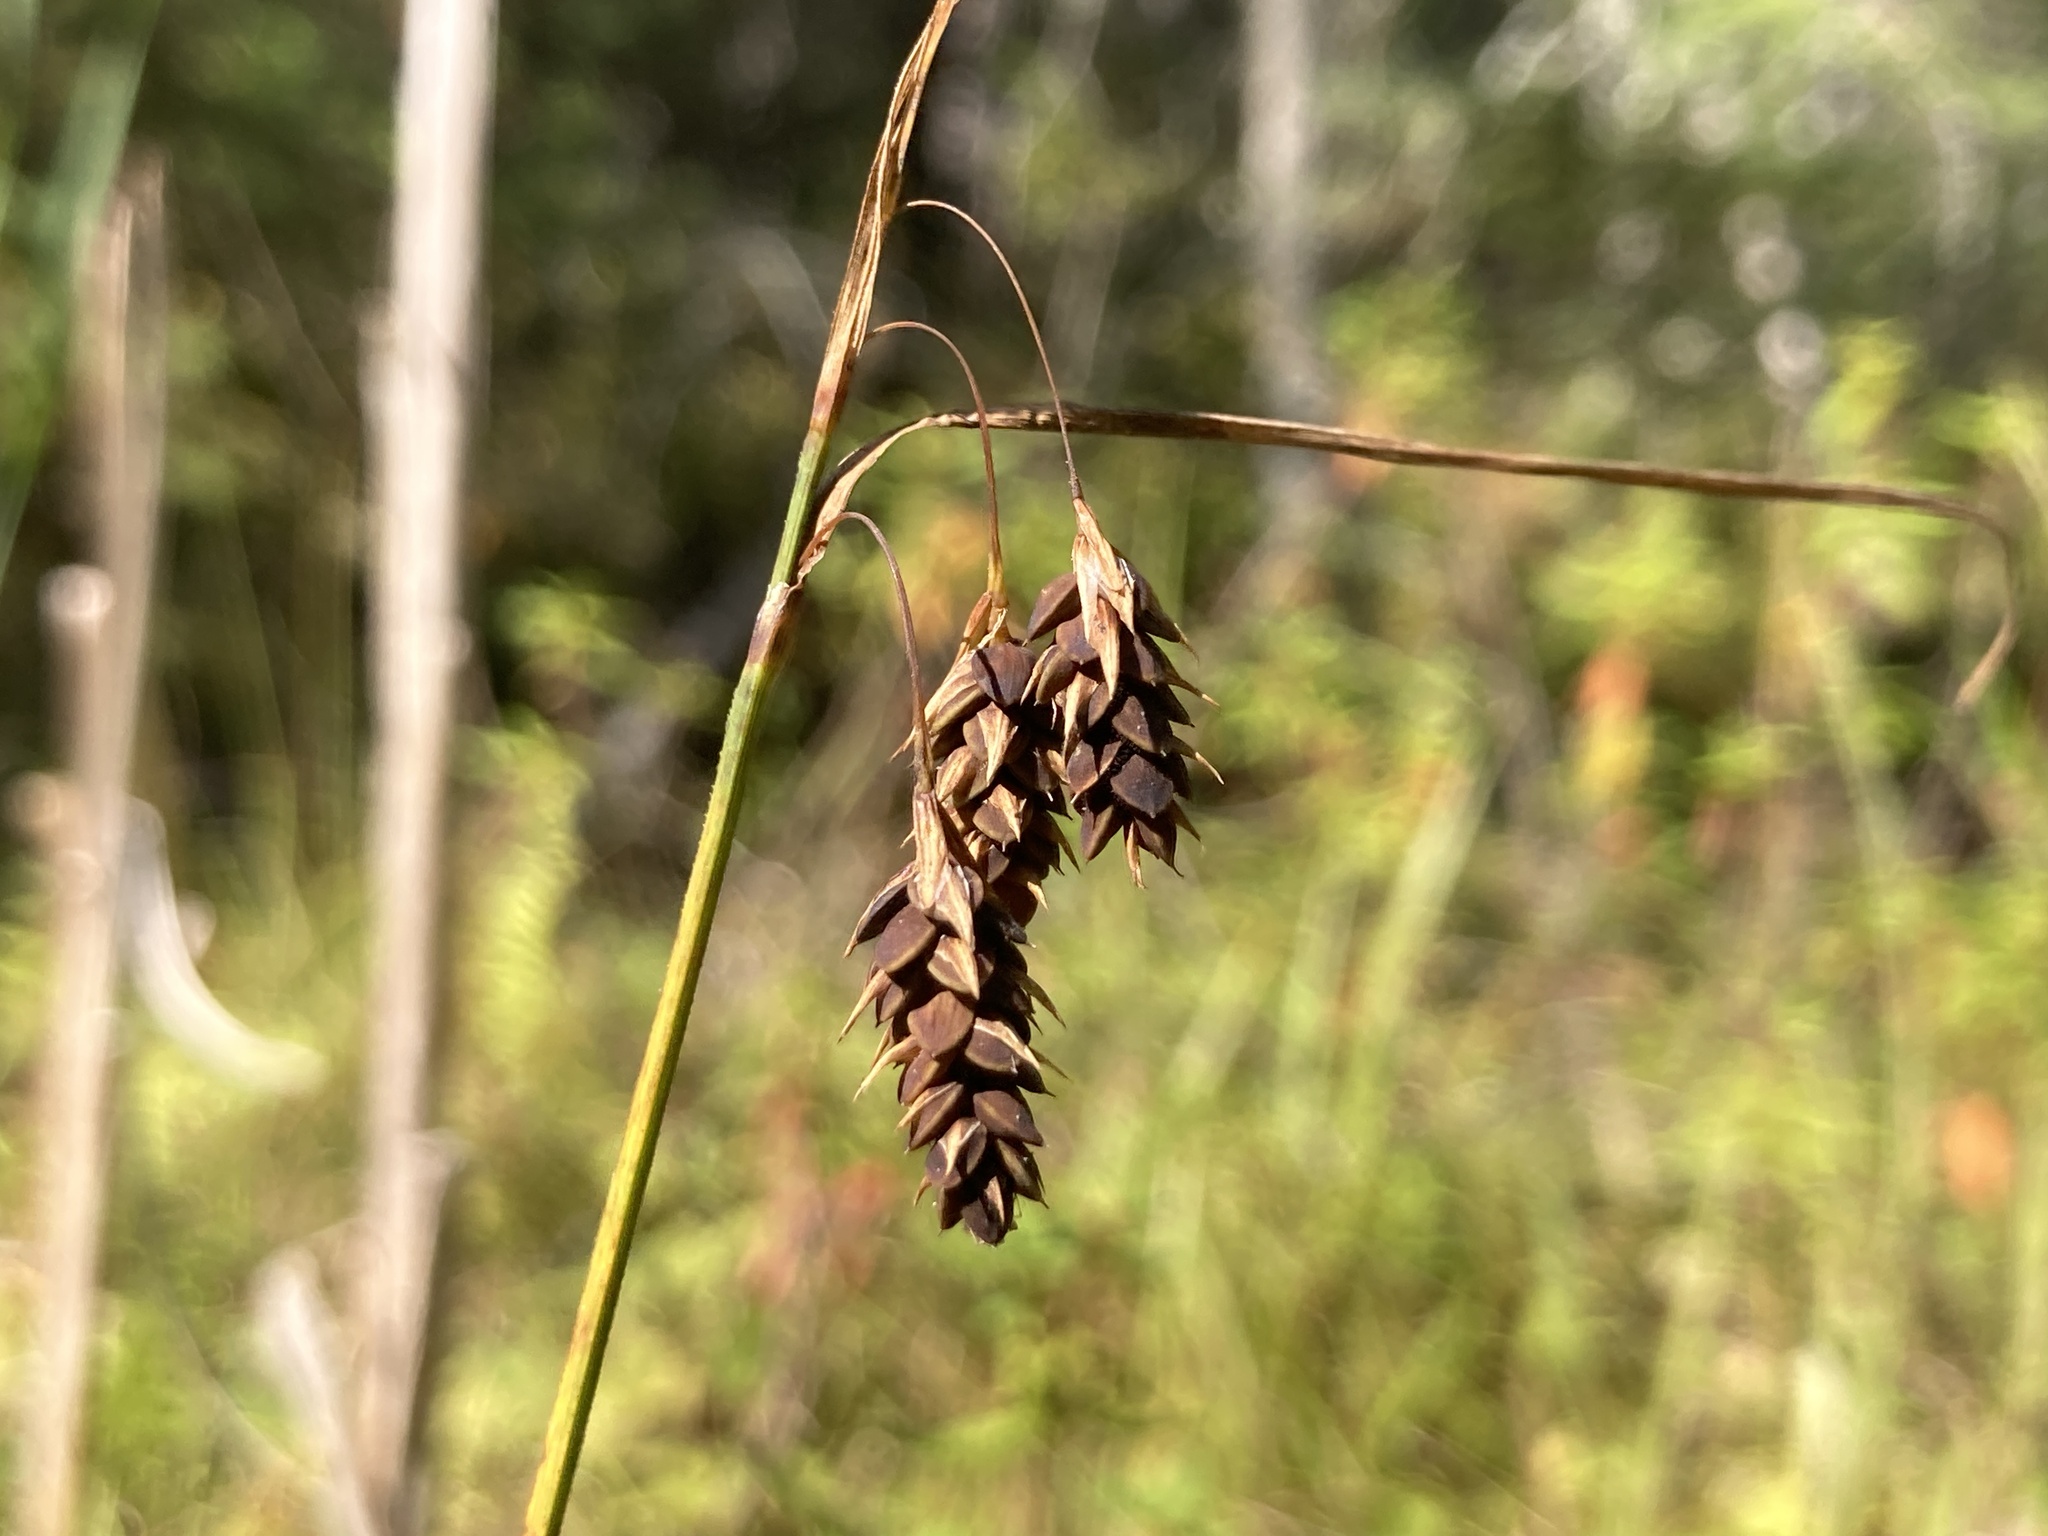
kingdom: Plantae
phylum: Tracheophyta
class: Liliopsida
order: Poales
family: Cyperaceae
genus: Carex
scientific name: Carex magellanica
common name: Bog sedge
